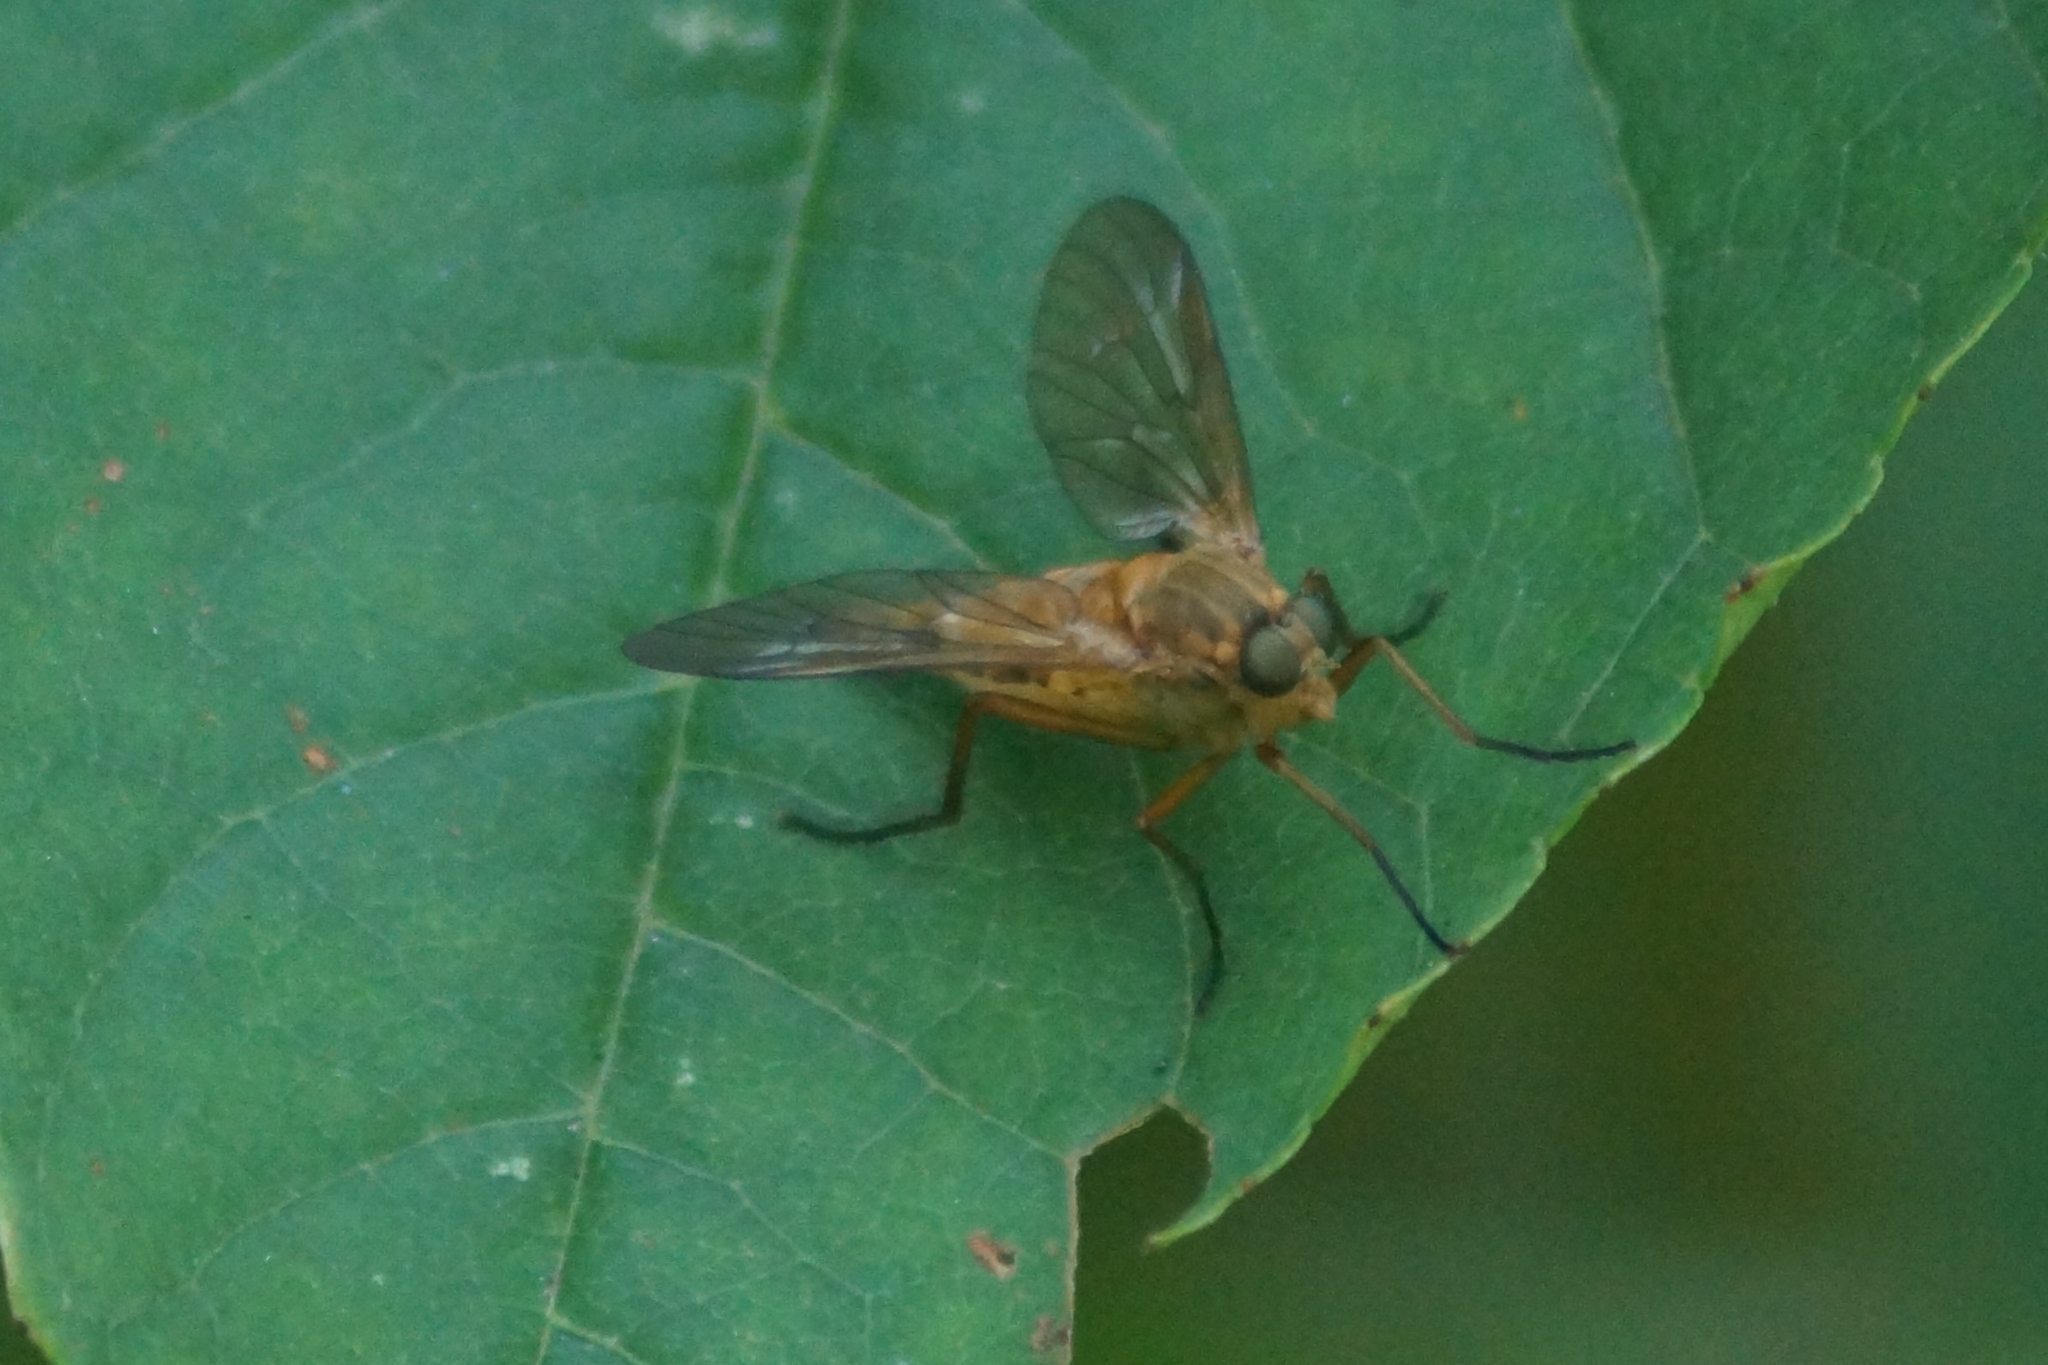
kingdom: Animalia
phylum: Arthropoda
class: Insecta
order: Diptera
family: Rhagionidae
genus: Rhagio
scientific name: Rhagio tringaria
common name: Marsh snipefly
